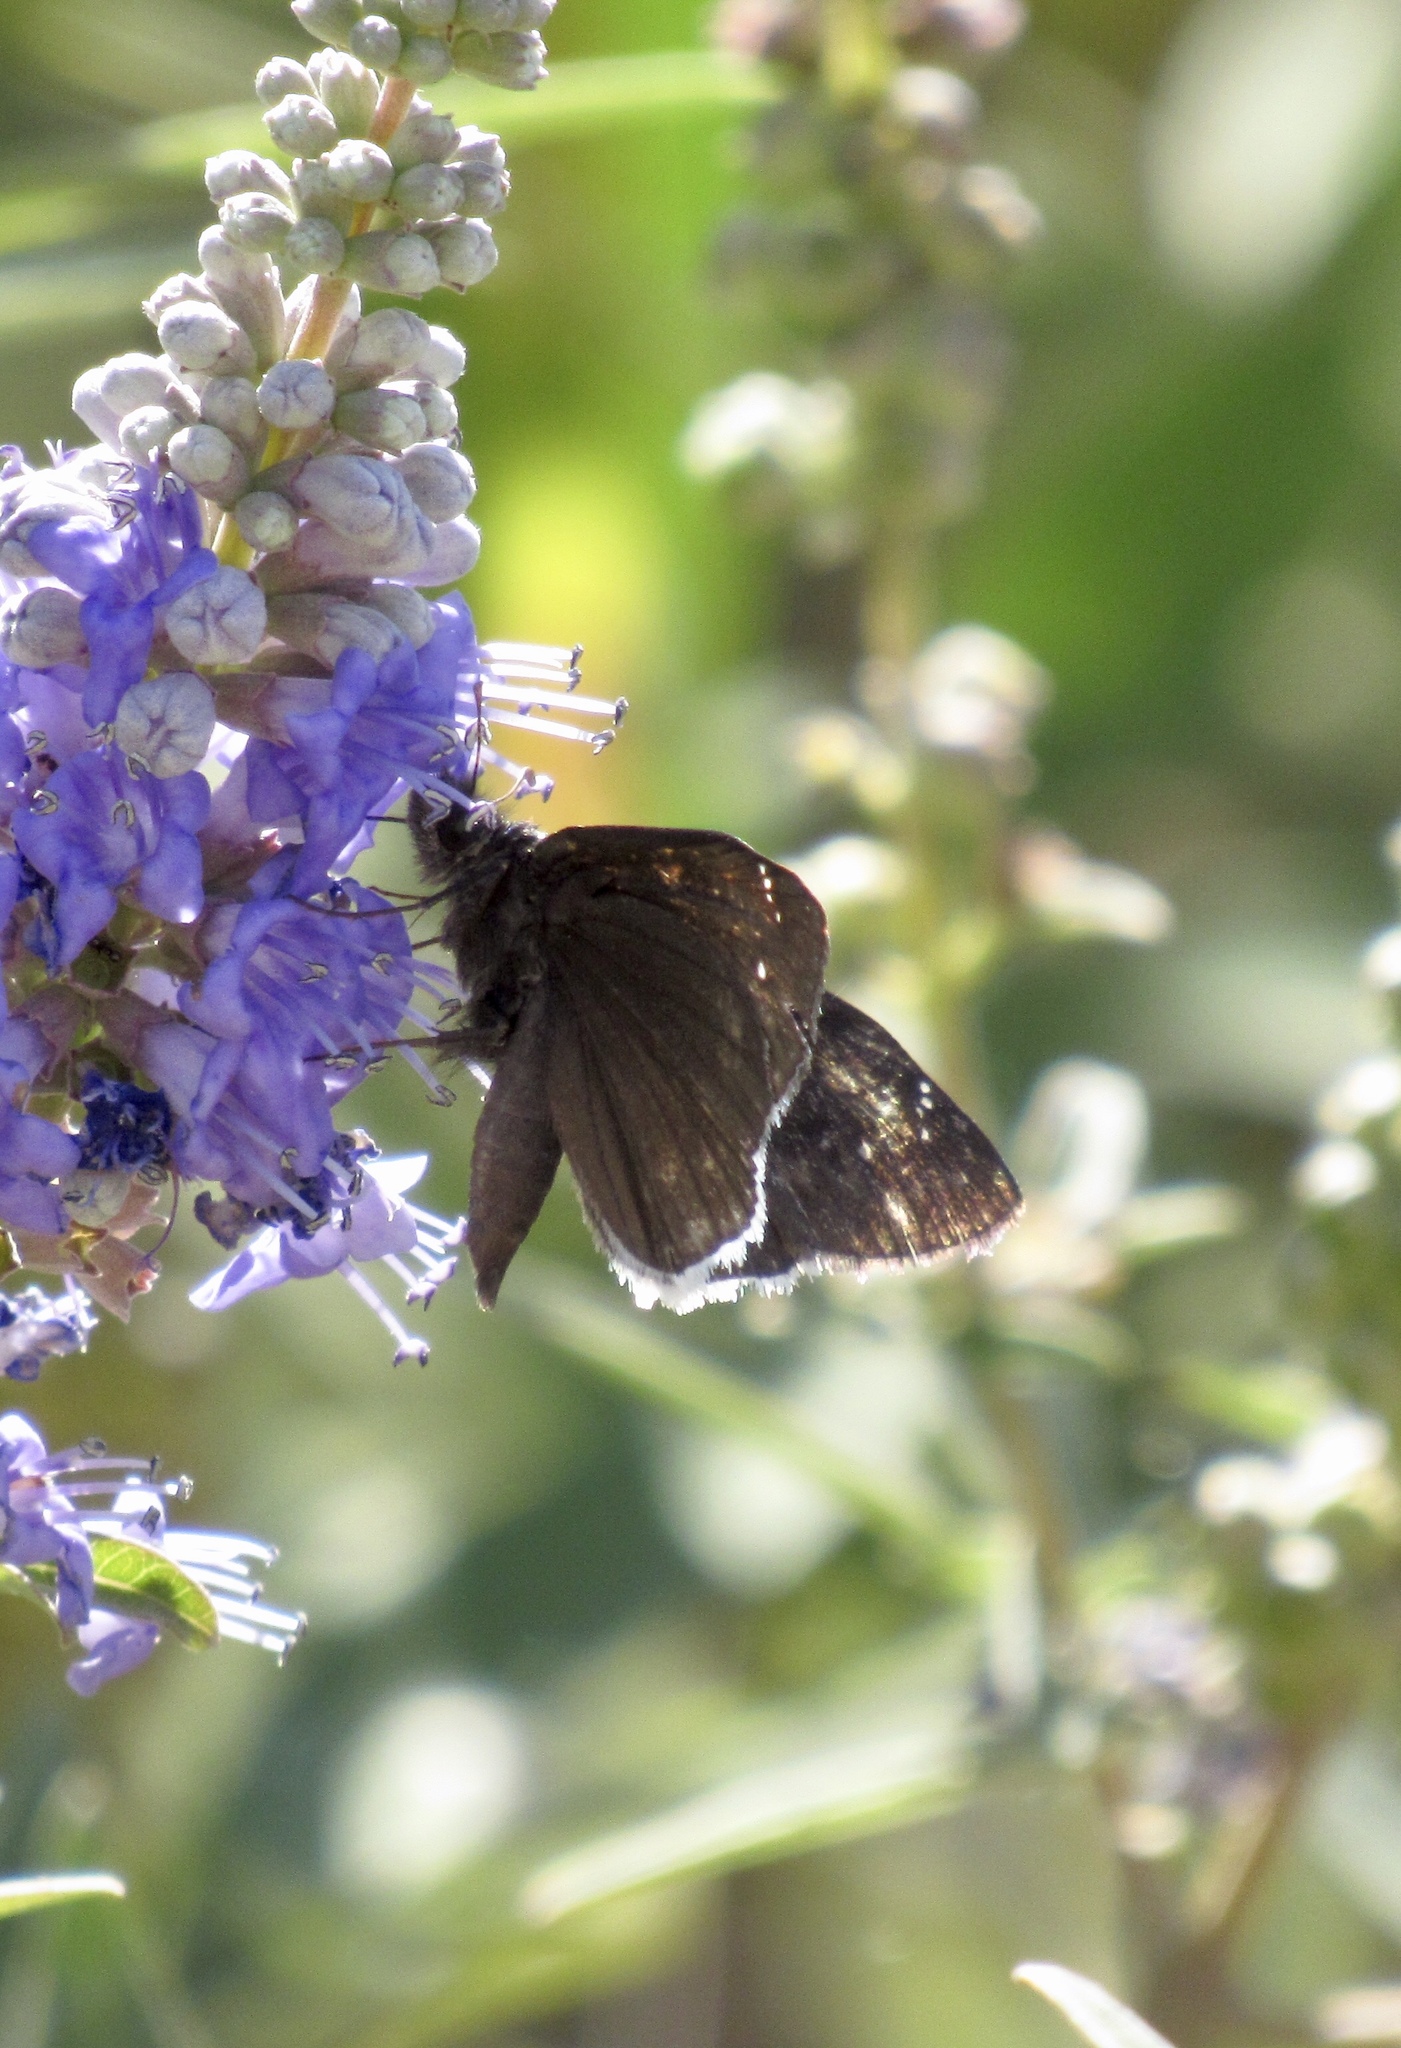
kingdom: Animalia
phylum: Arthropoda
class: Insecta
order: Lepidoptera
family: Hesperiidae
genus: Erynnis
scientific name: Erynnis funeralis
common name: Funereal duskywing
